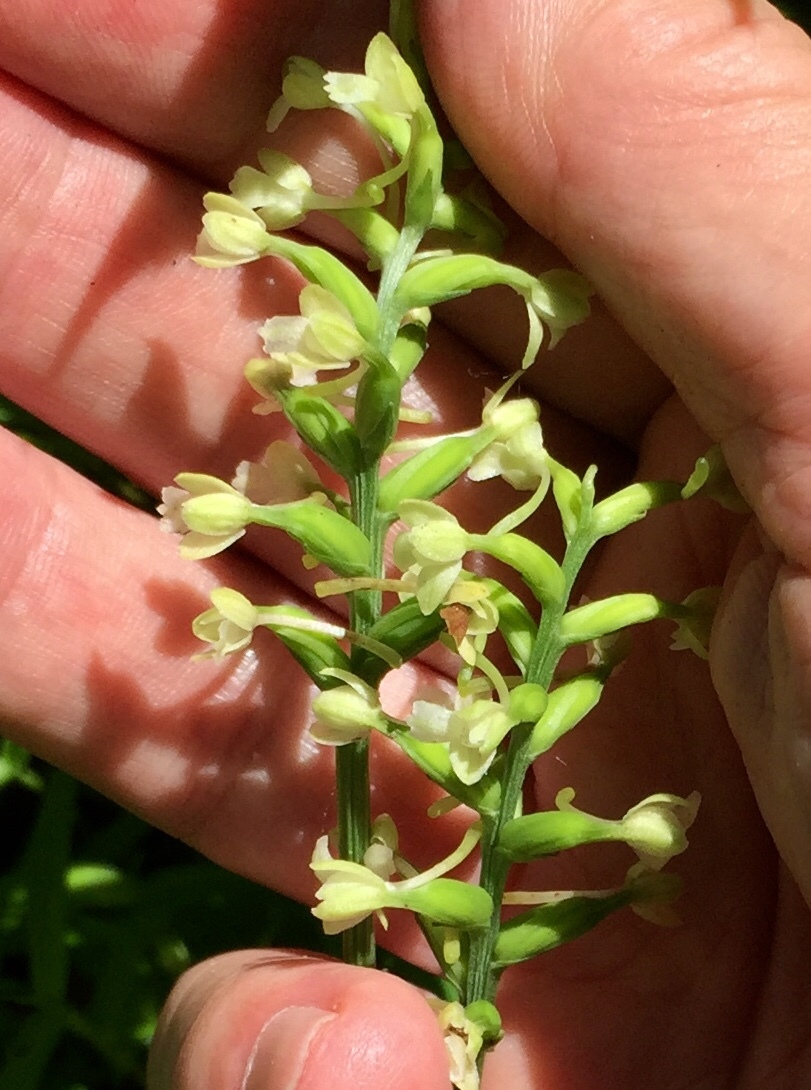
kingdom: Plantae
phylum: Tracheophyta
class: Liliopsida
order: Asparagales
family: Orchidaceae
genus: Platanthera
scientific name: Platanthera clavellata
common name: Club-spur orchid
